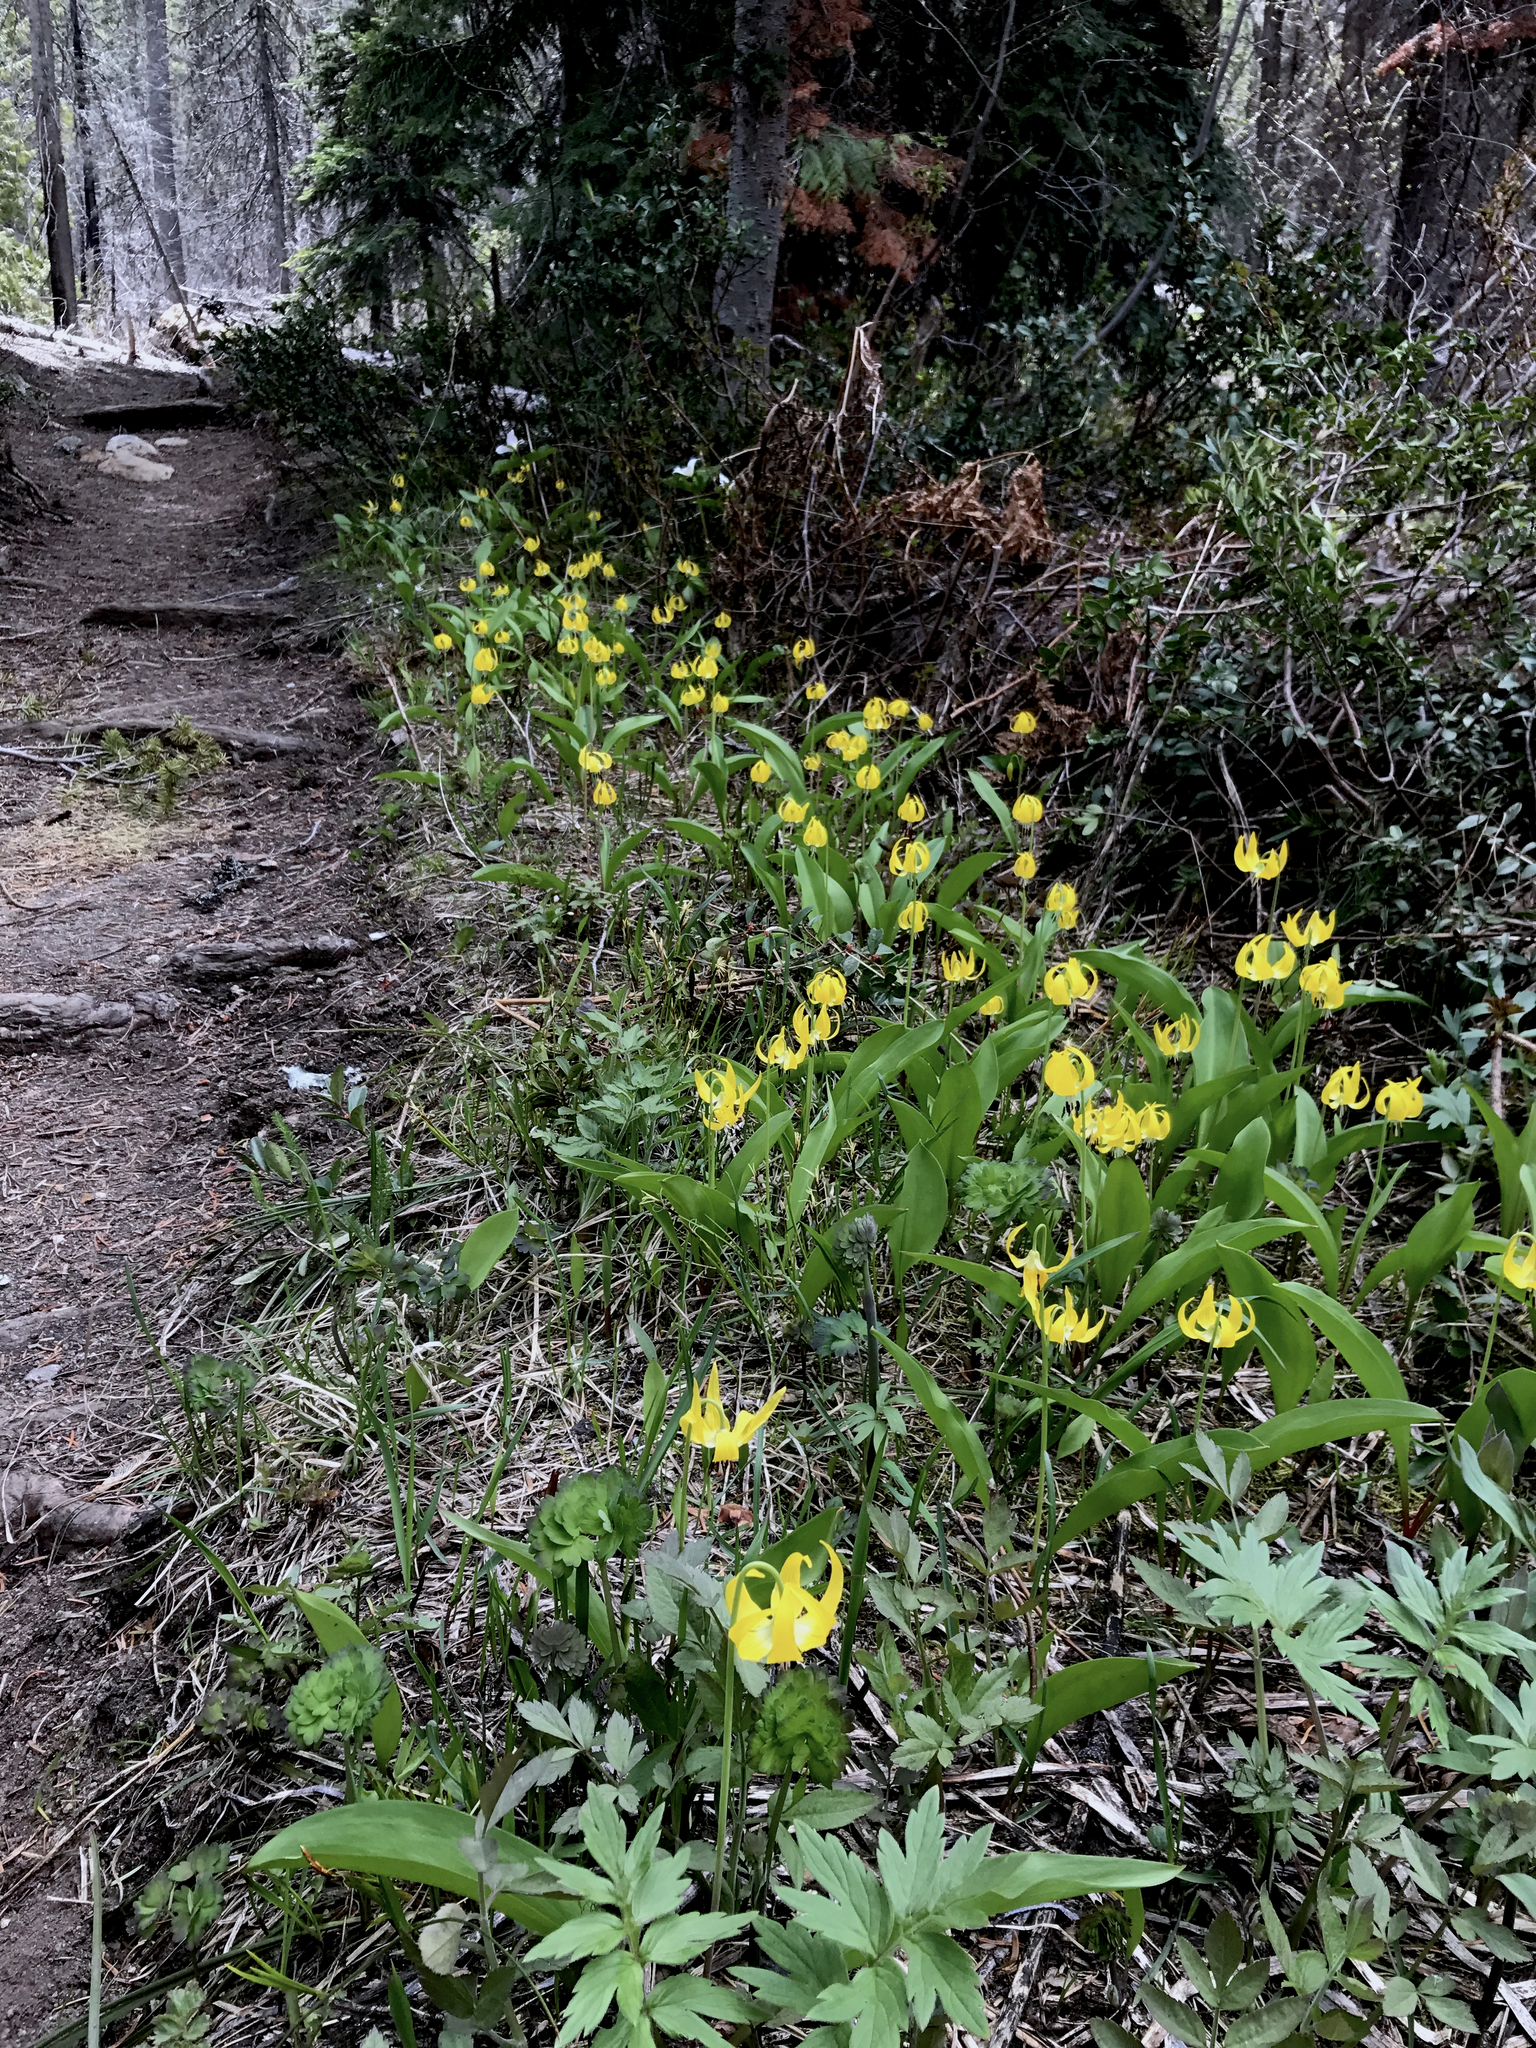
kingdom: Plantae
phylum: Tracheophyta
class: Liliopsida
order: Liliales
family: Liliaceae
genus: Erythronium
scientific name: Erythronium grandiflorum
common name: Avalanche-lily
